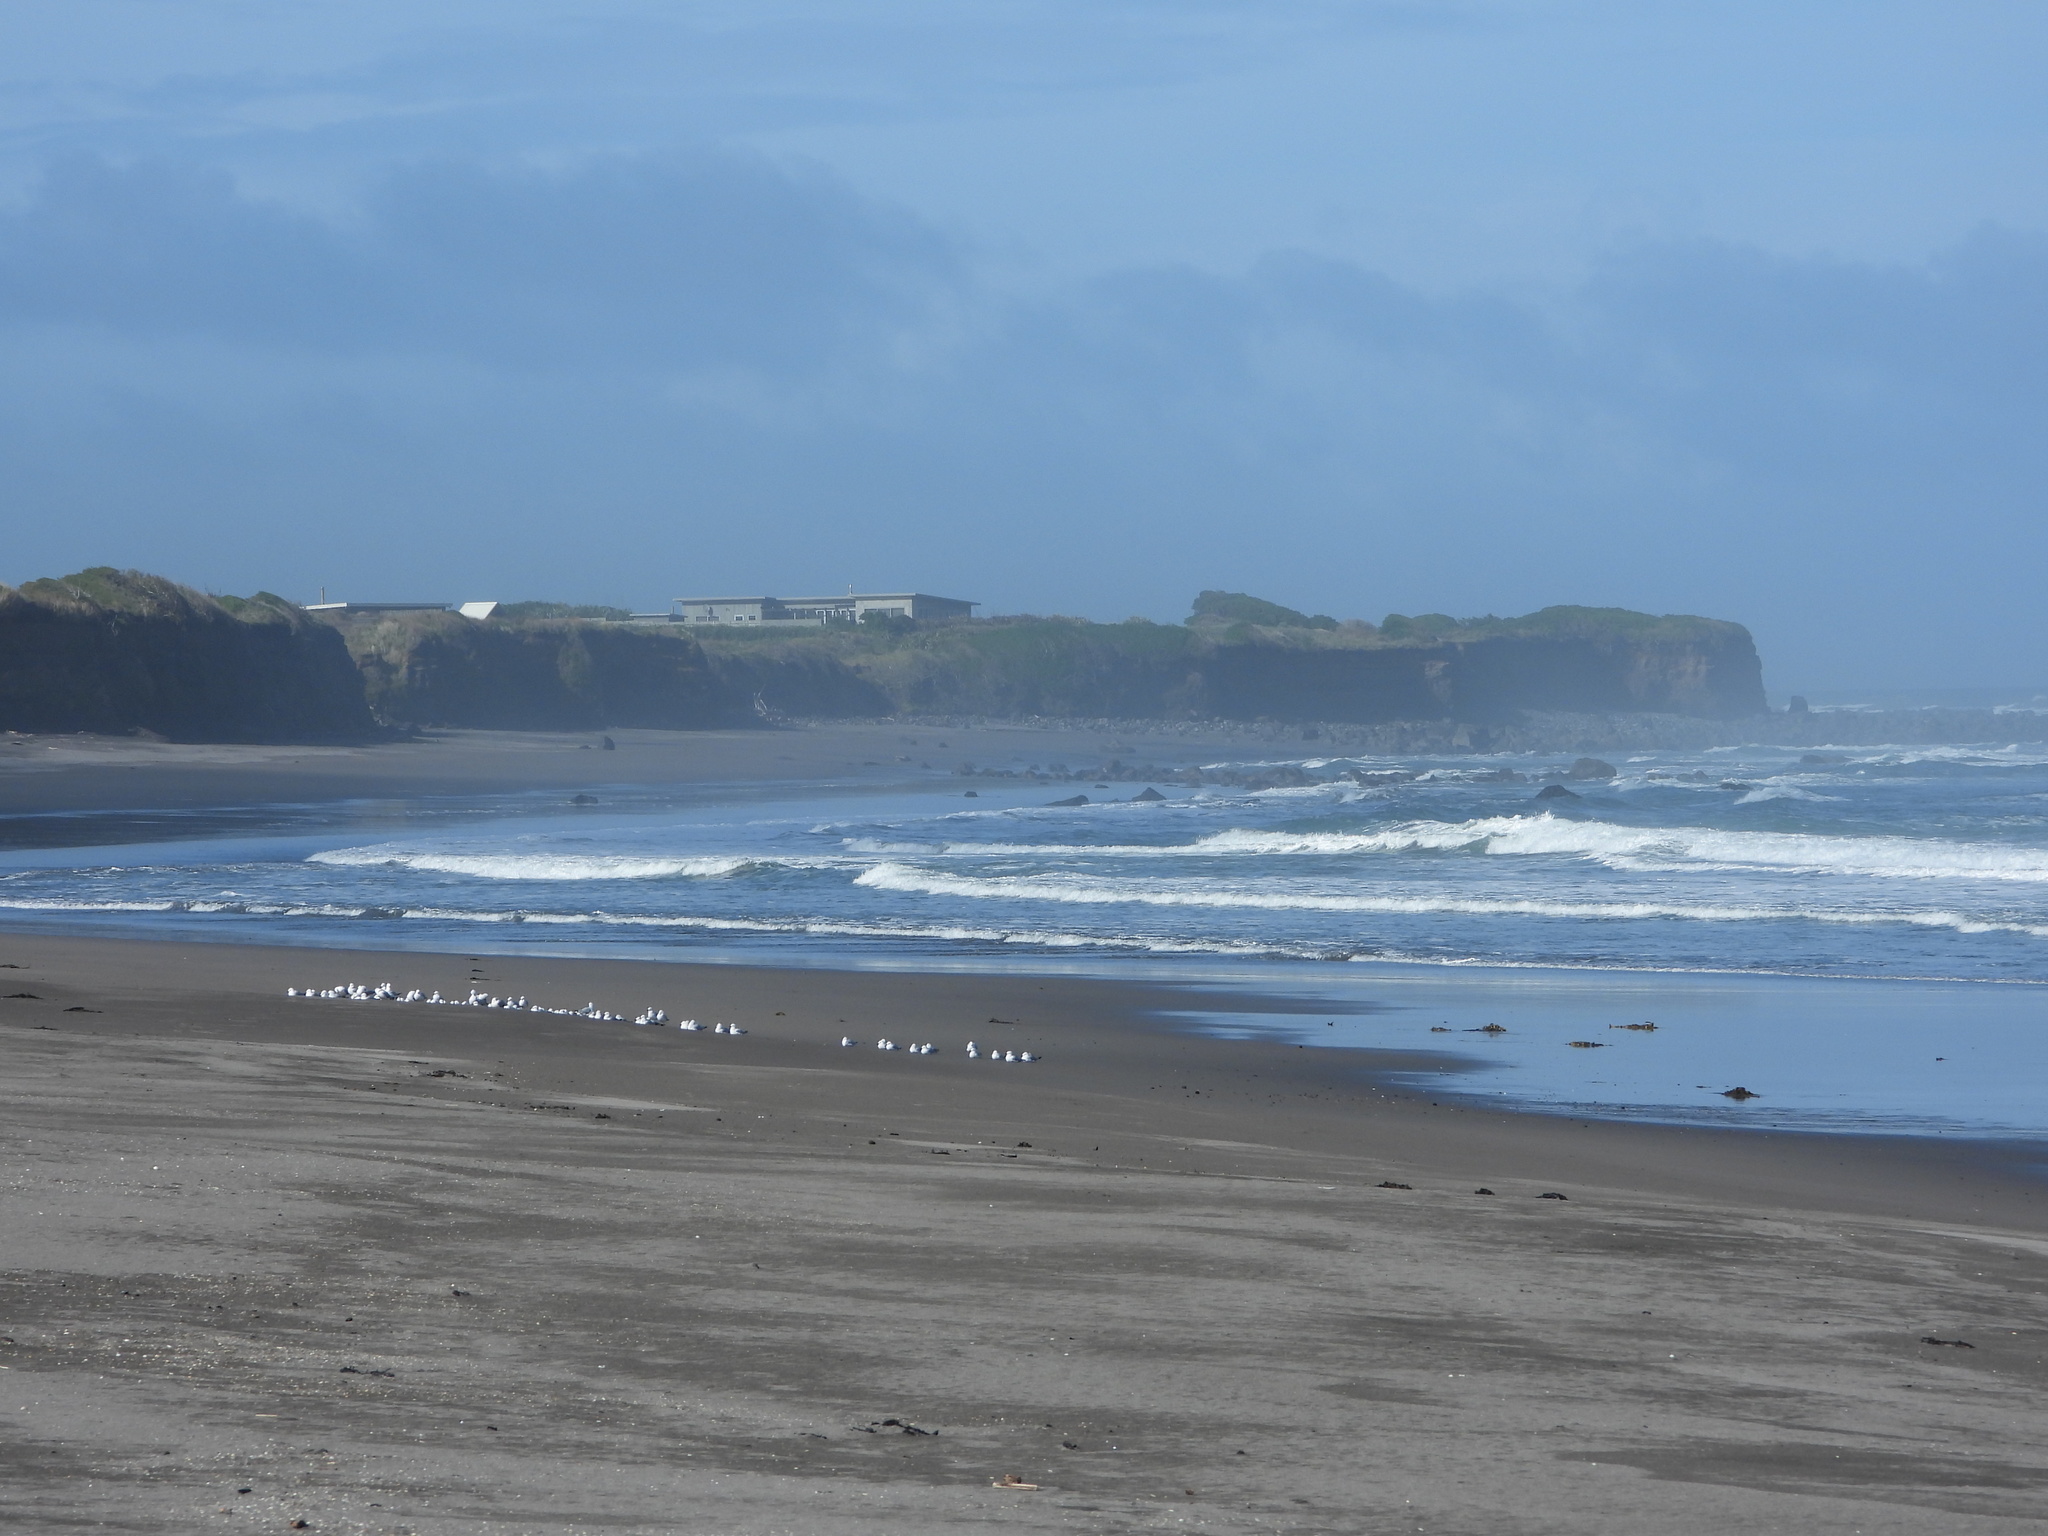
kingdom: Animalia
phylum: Chordata
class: Aves
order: Charadriiformes
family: Laridae
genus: Chroicocephalus
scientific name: Chroicocephalus novaehollandiae
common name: Silver gull
